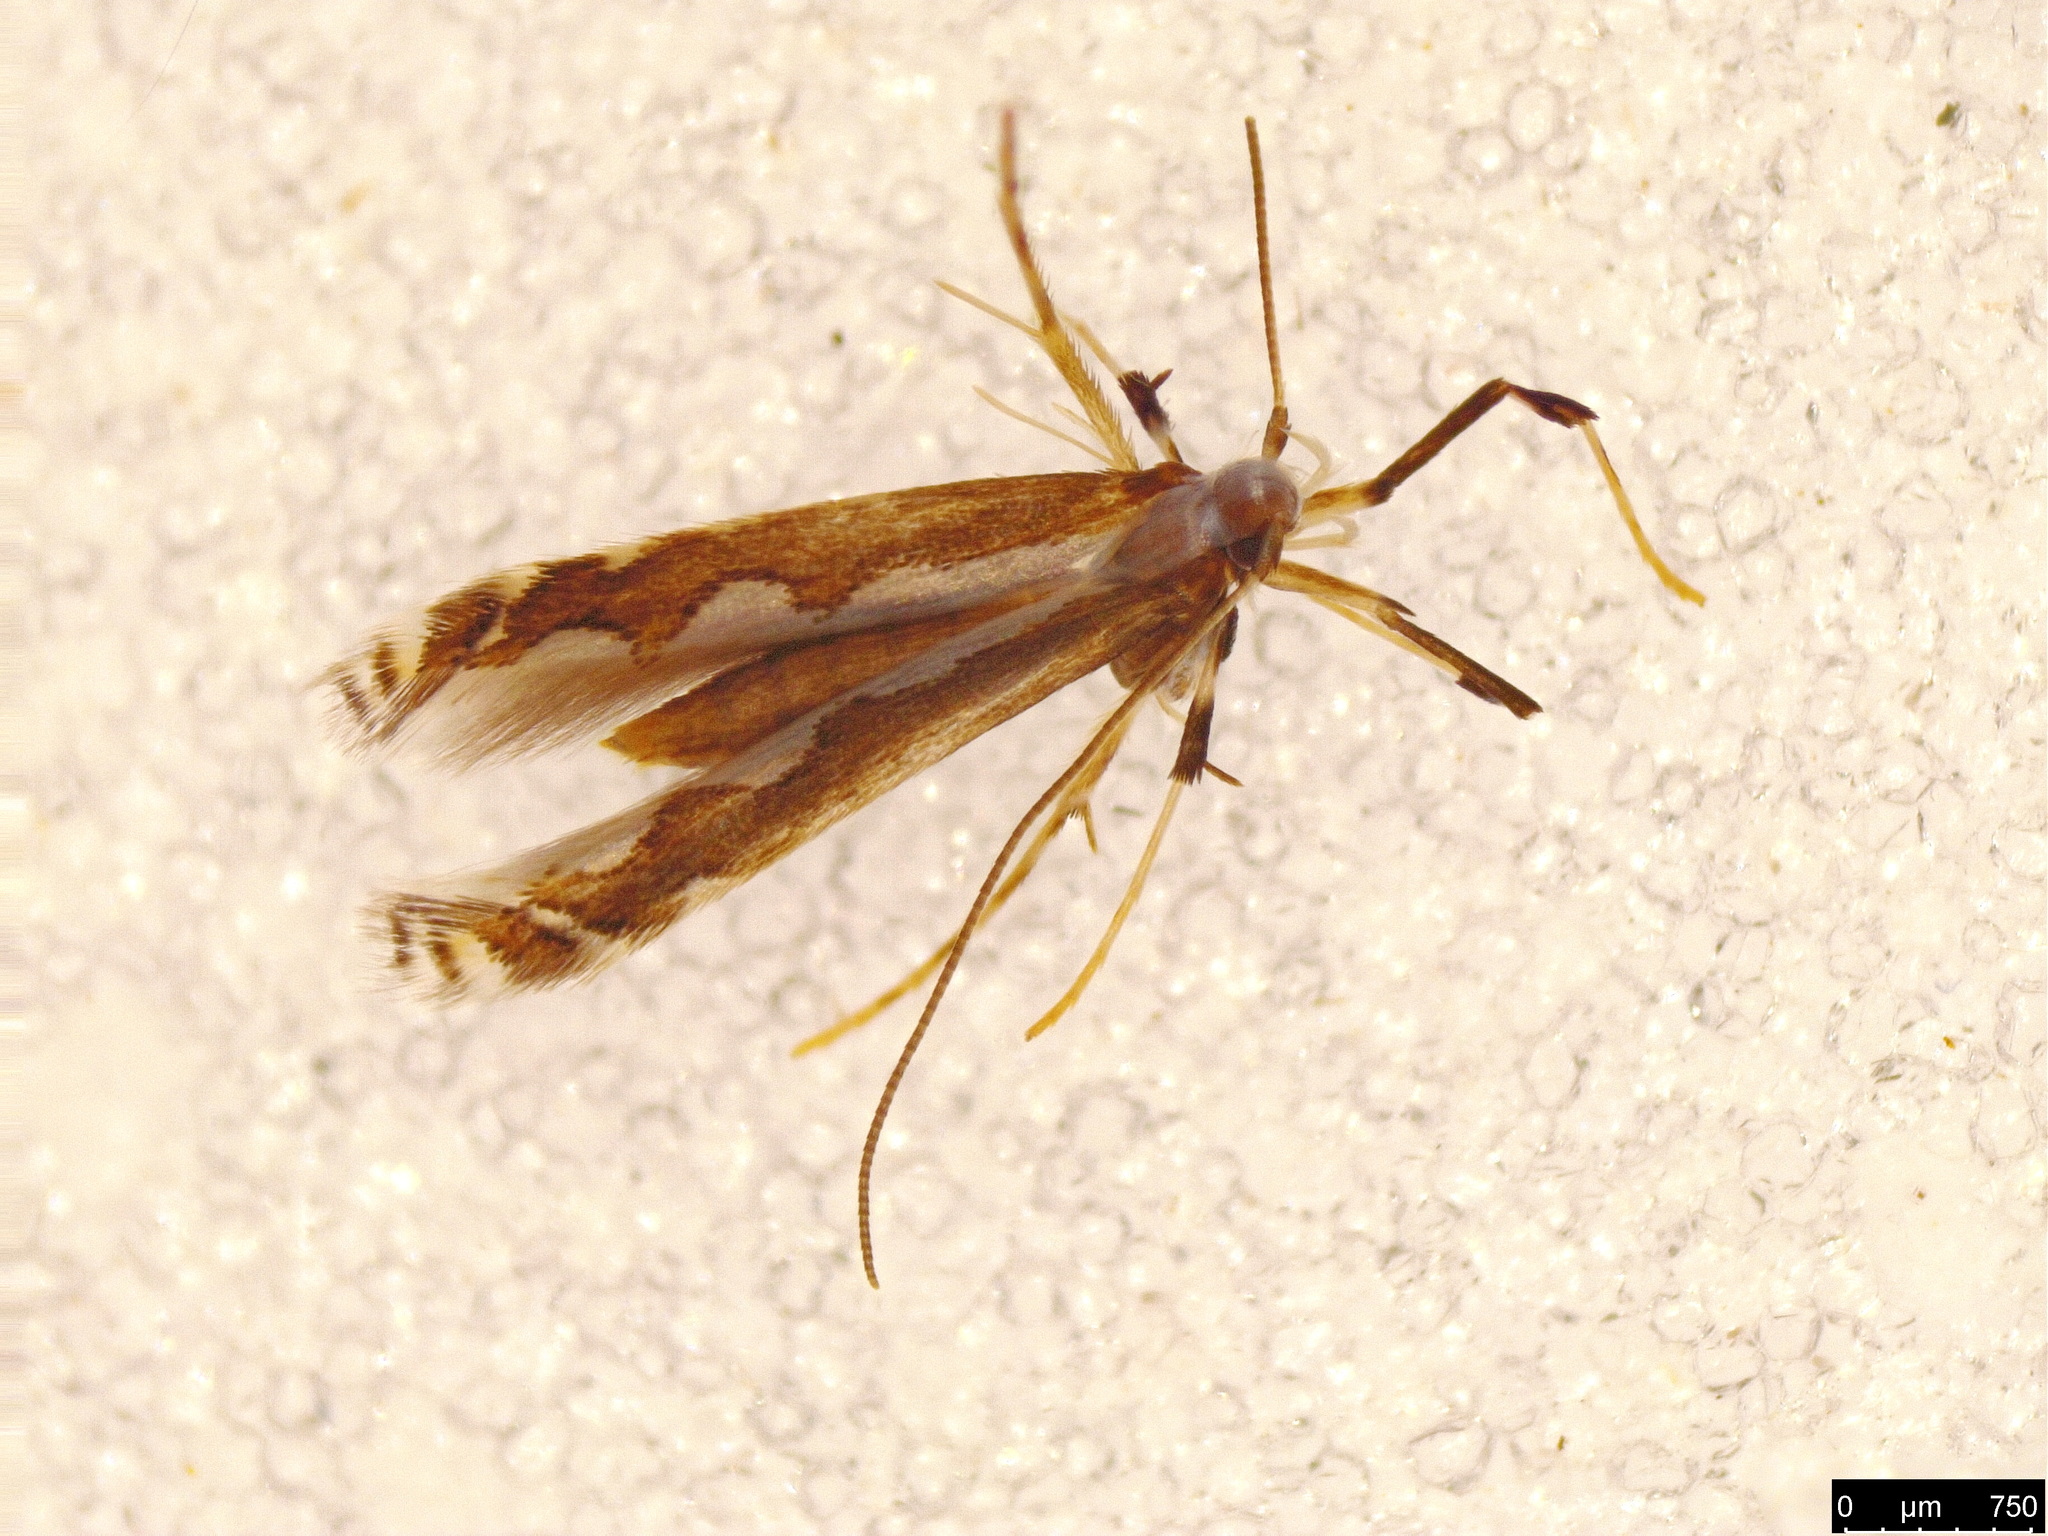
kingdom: Animalia
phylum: Arthropoda
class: Insecta
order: Lepidoptera
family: Gracillariidae
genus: Dialectica
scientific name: Dialectica scalariella
